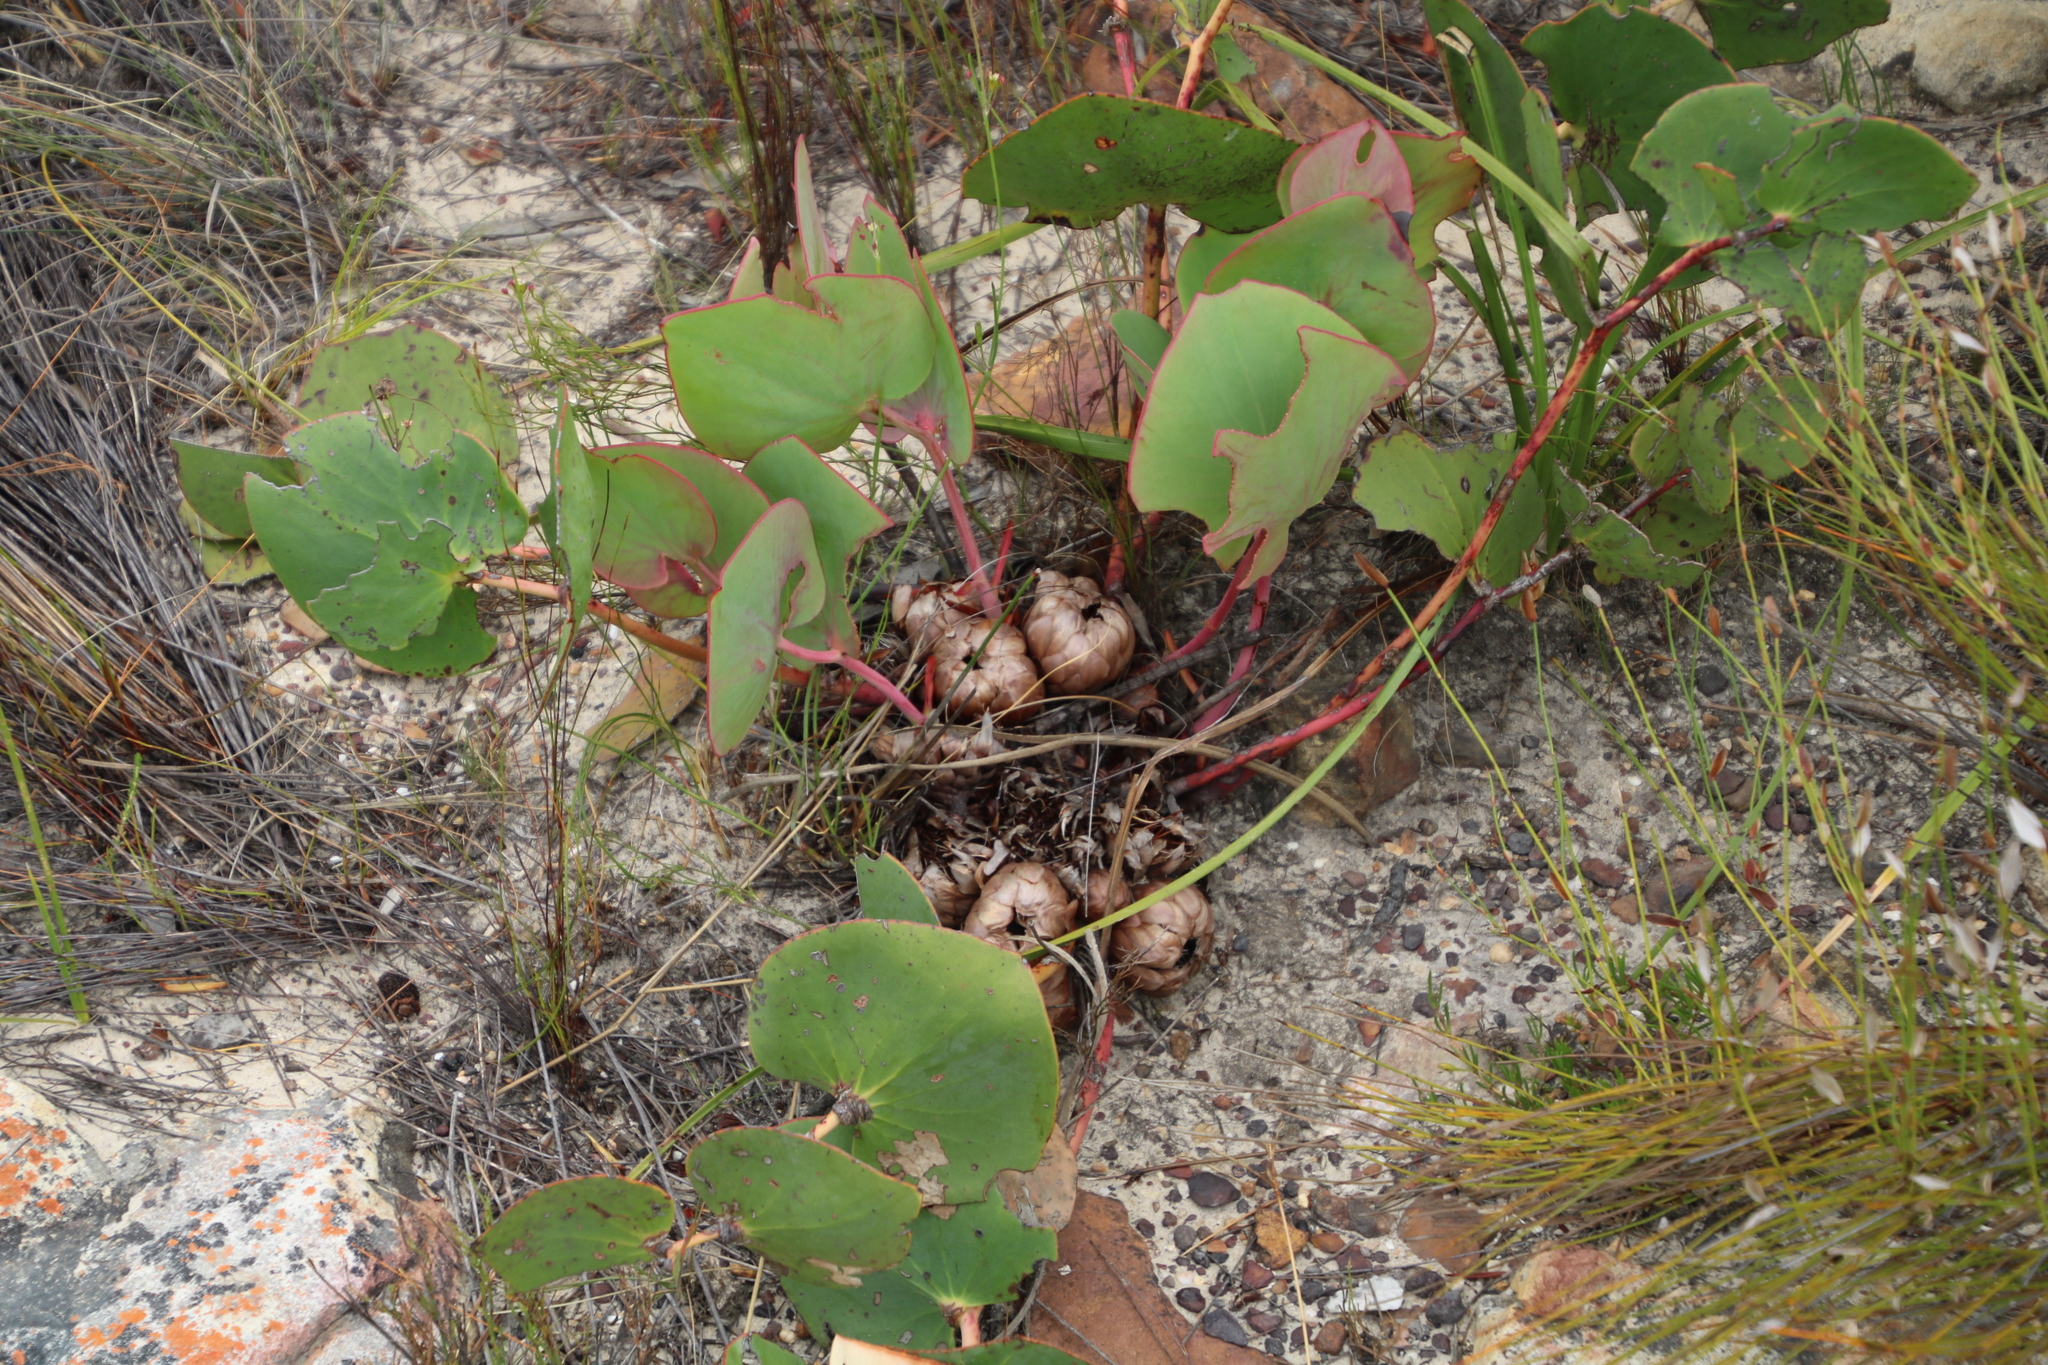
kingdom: Plantae
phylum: Tracheophyta
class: Magnoliopsida
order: Proteales
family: Proteaceae
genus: Protea
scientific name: Protea cordata
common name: Heart-leaf sugarbush
